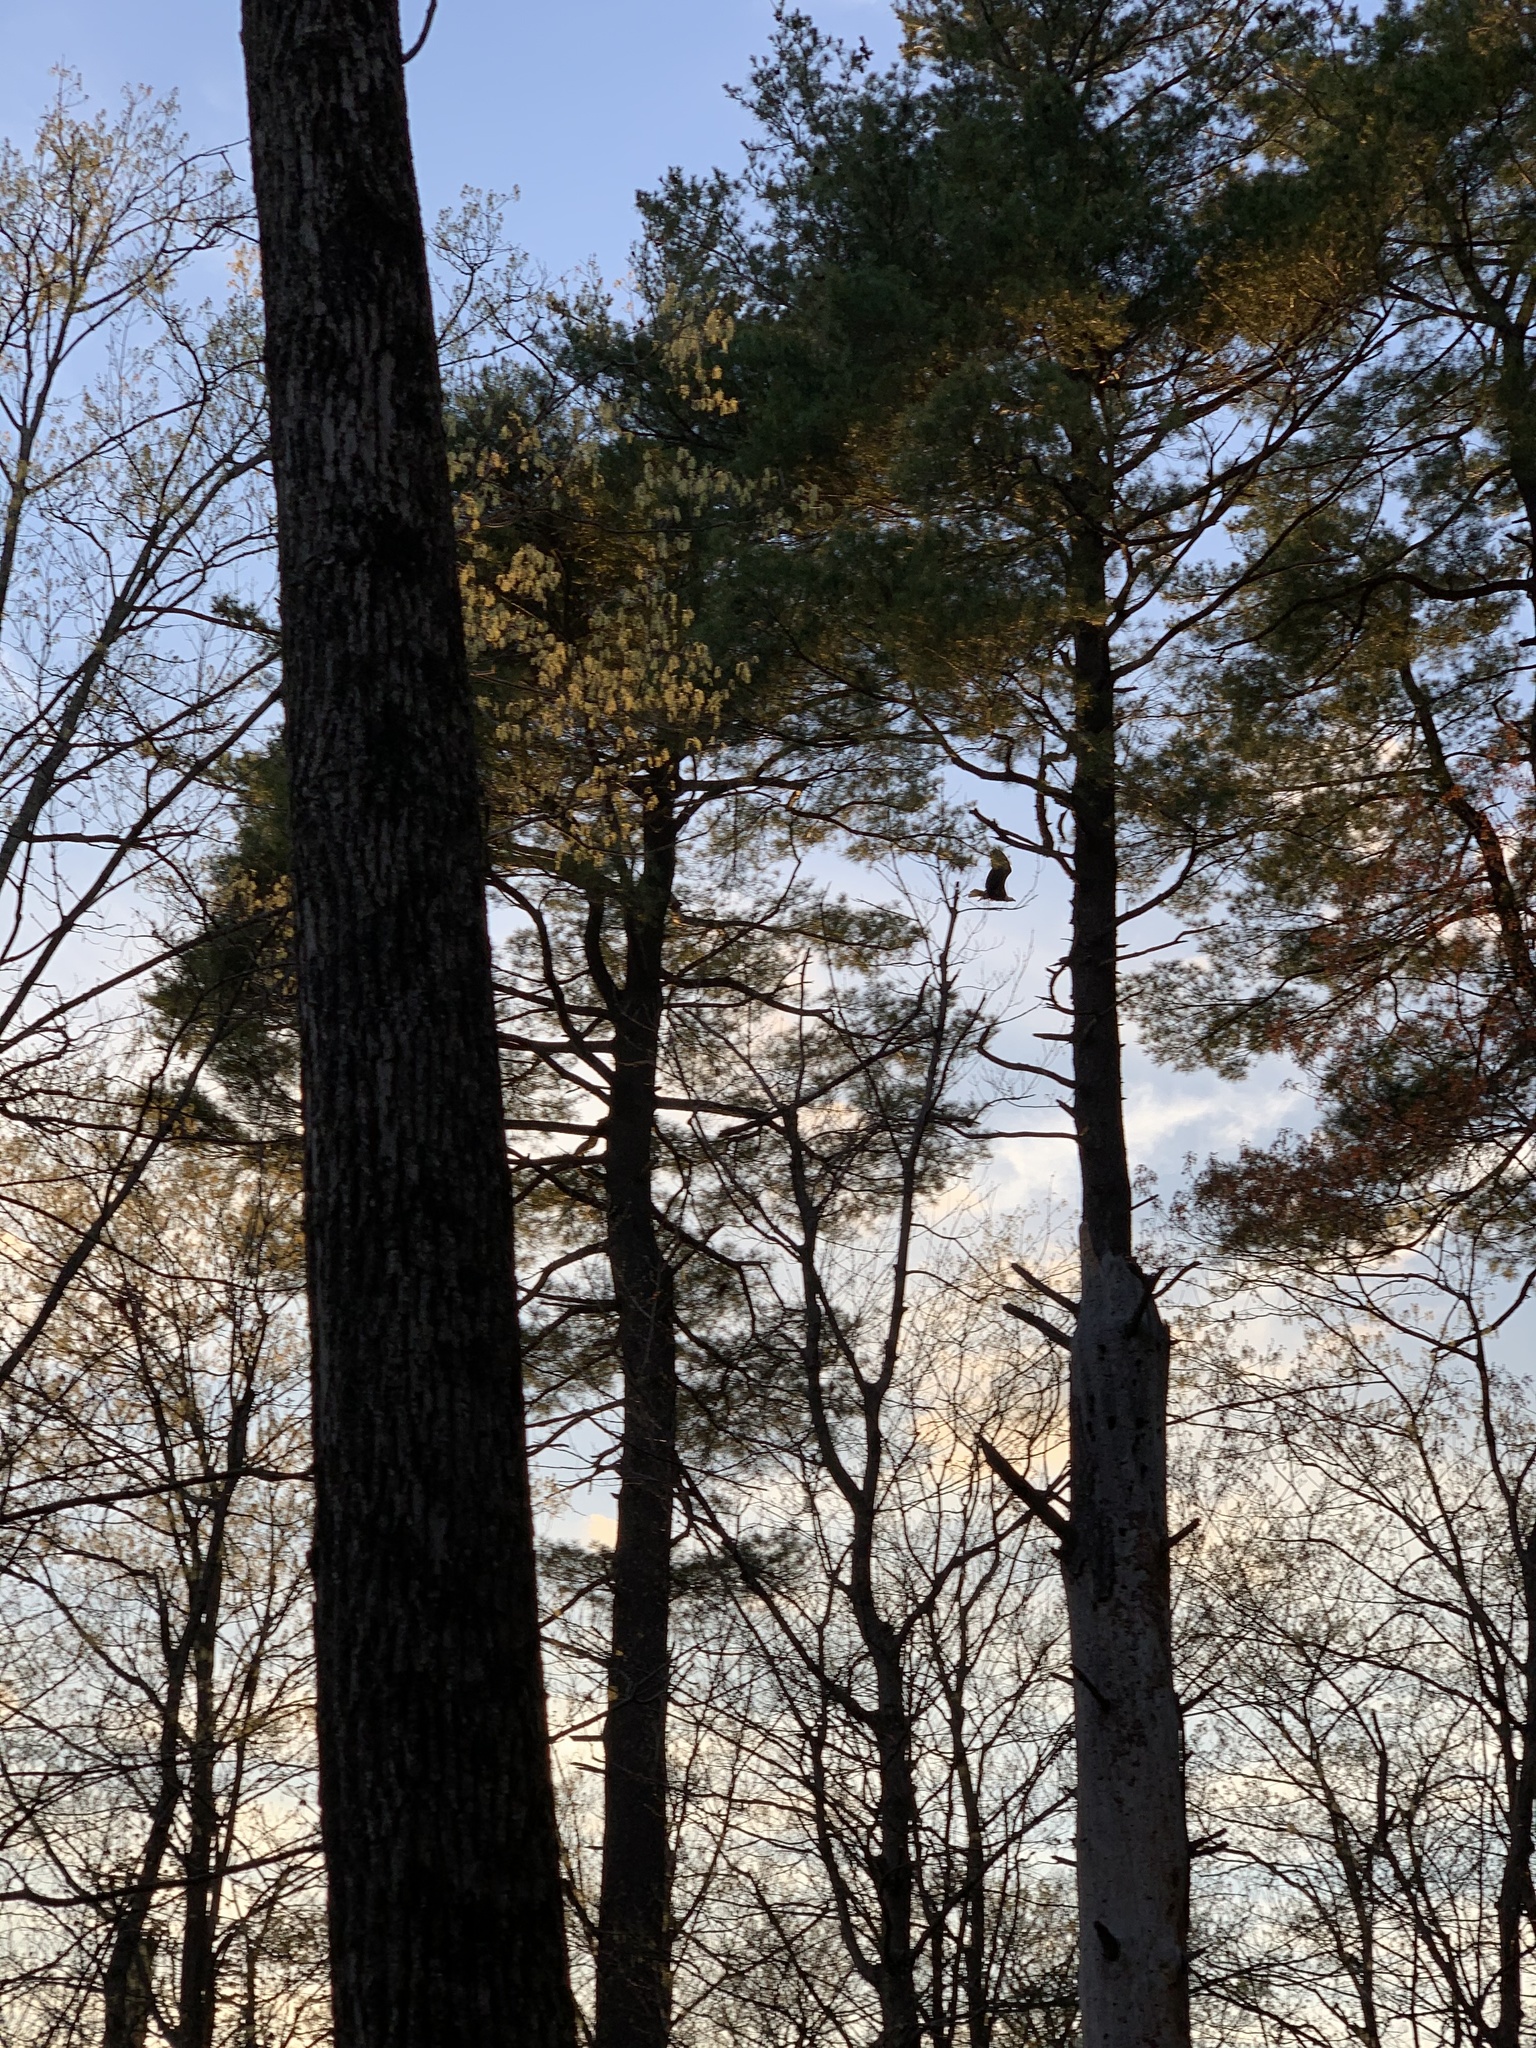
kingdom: Animalia
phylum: Chordata
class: Aves
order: Accipitriformes
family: Accipitridae
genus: Haliaeetus
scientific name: Haliaeetus leucocephalus
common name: Bald eagle
